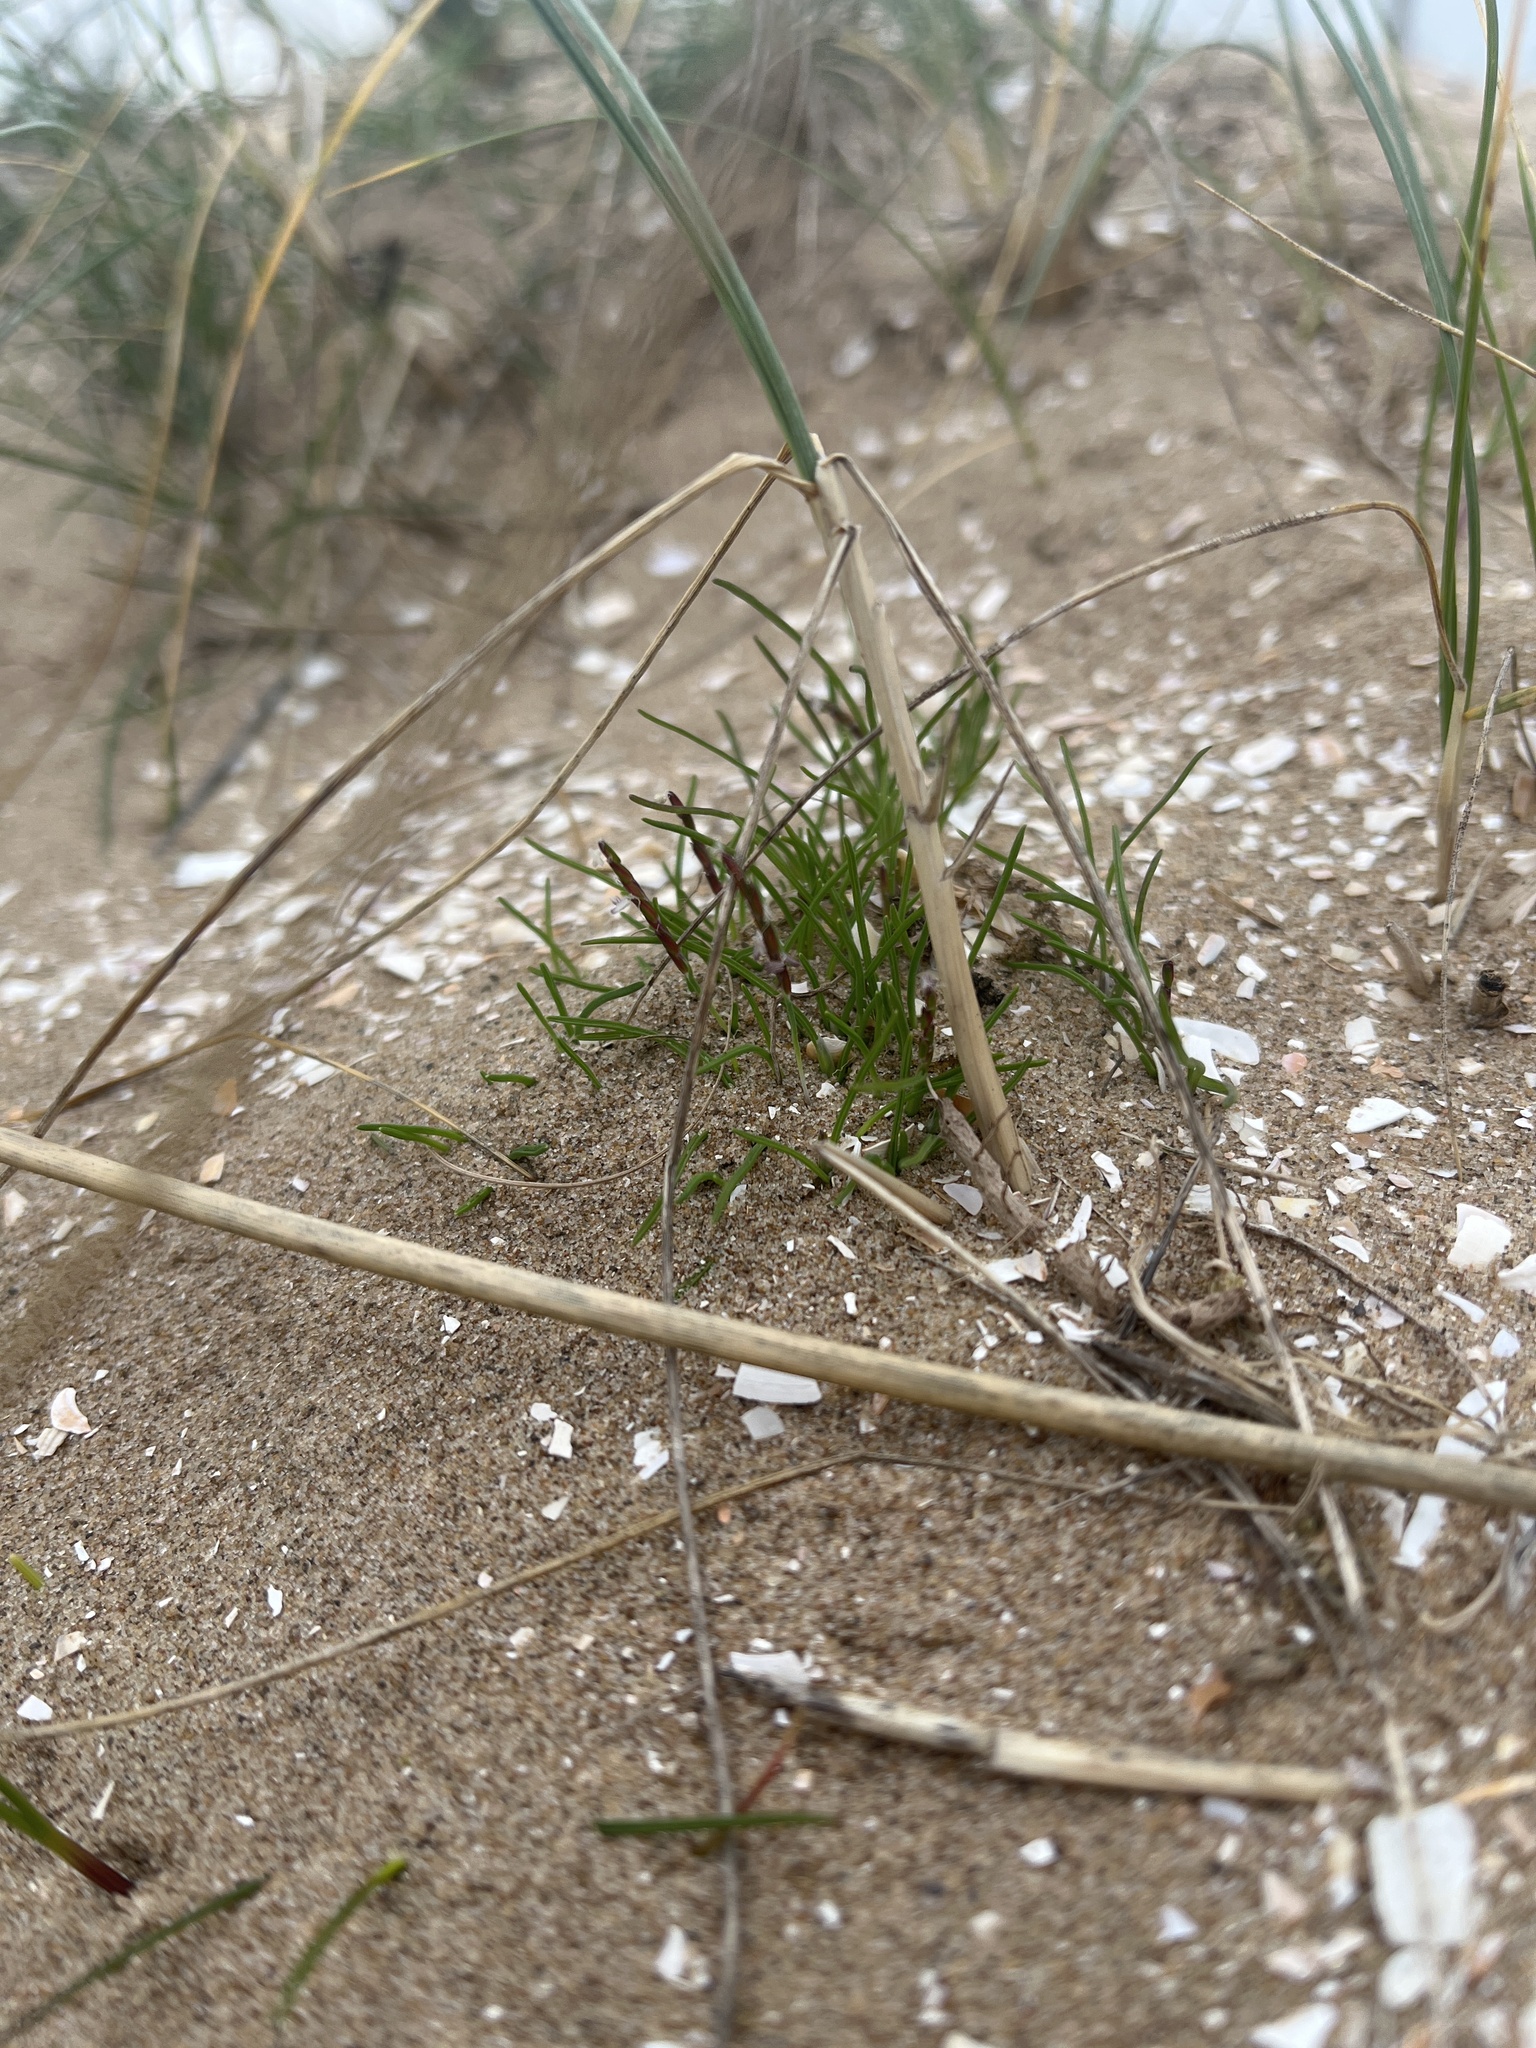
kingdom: Plantae
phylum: Tracheophyta
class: Liliopsida
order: Poales
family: Poaceae
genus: Mibora
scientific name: Mibora minima
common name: Early sand-grass
